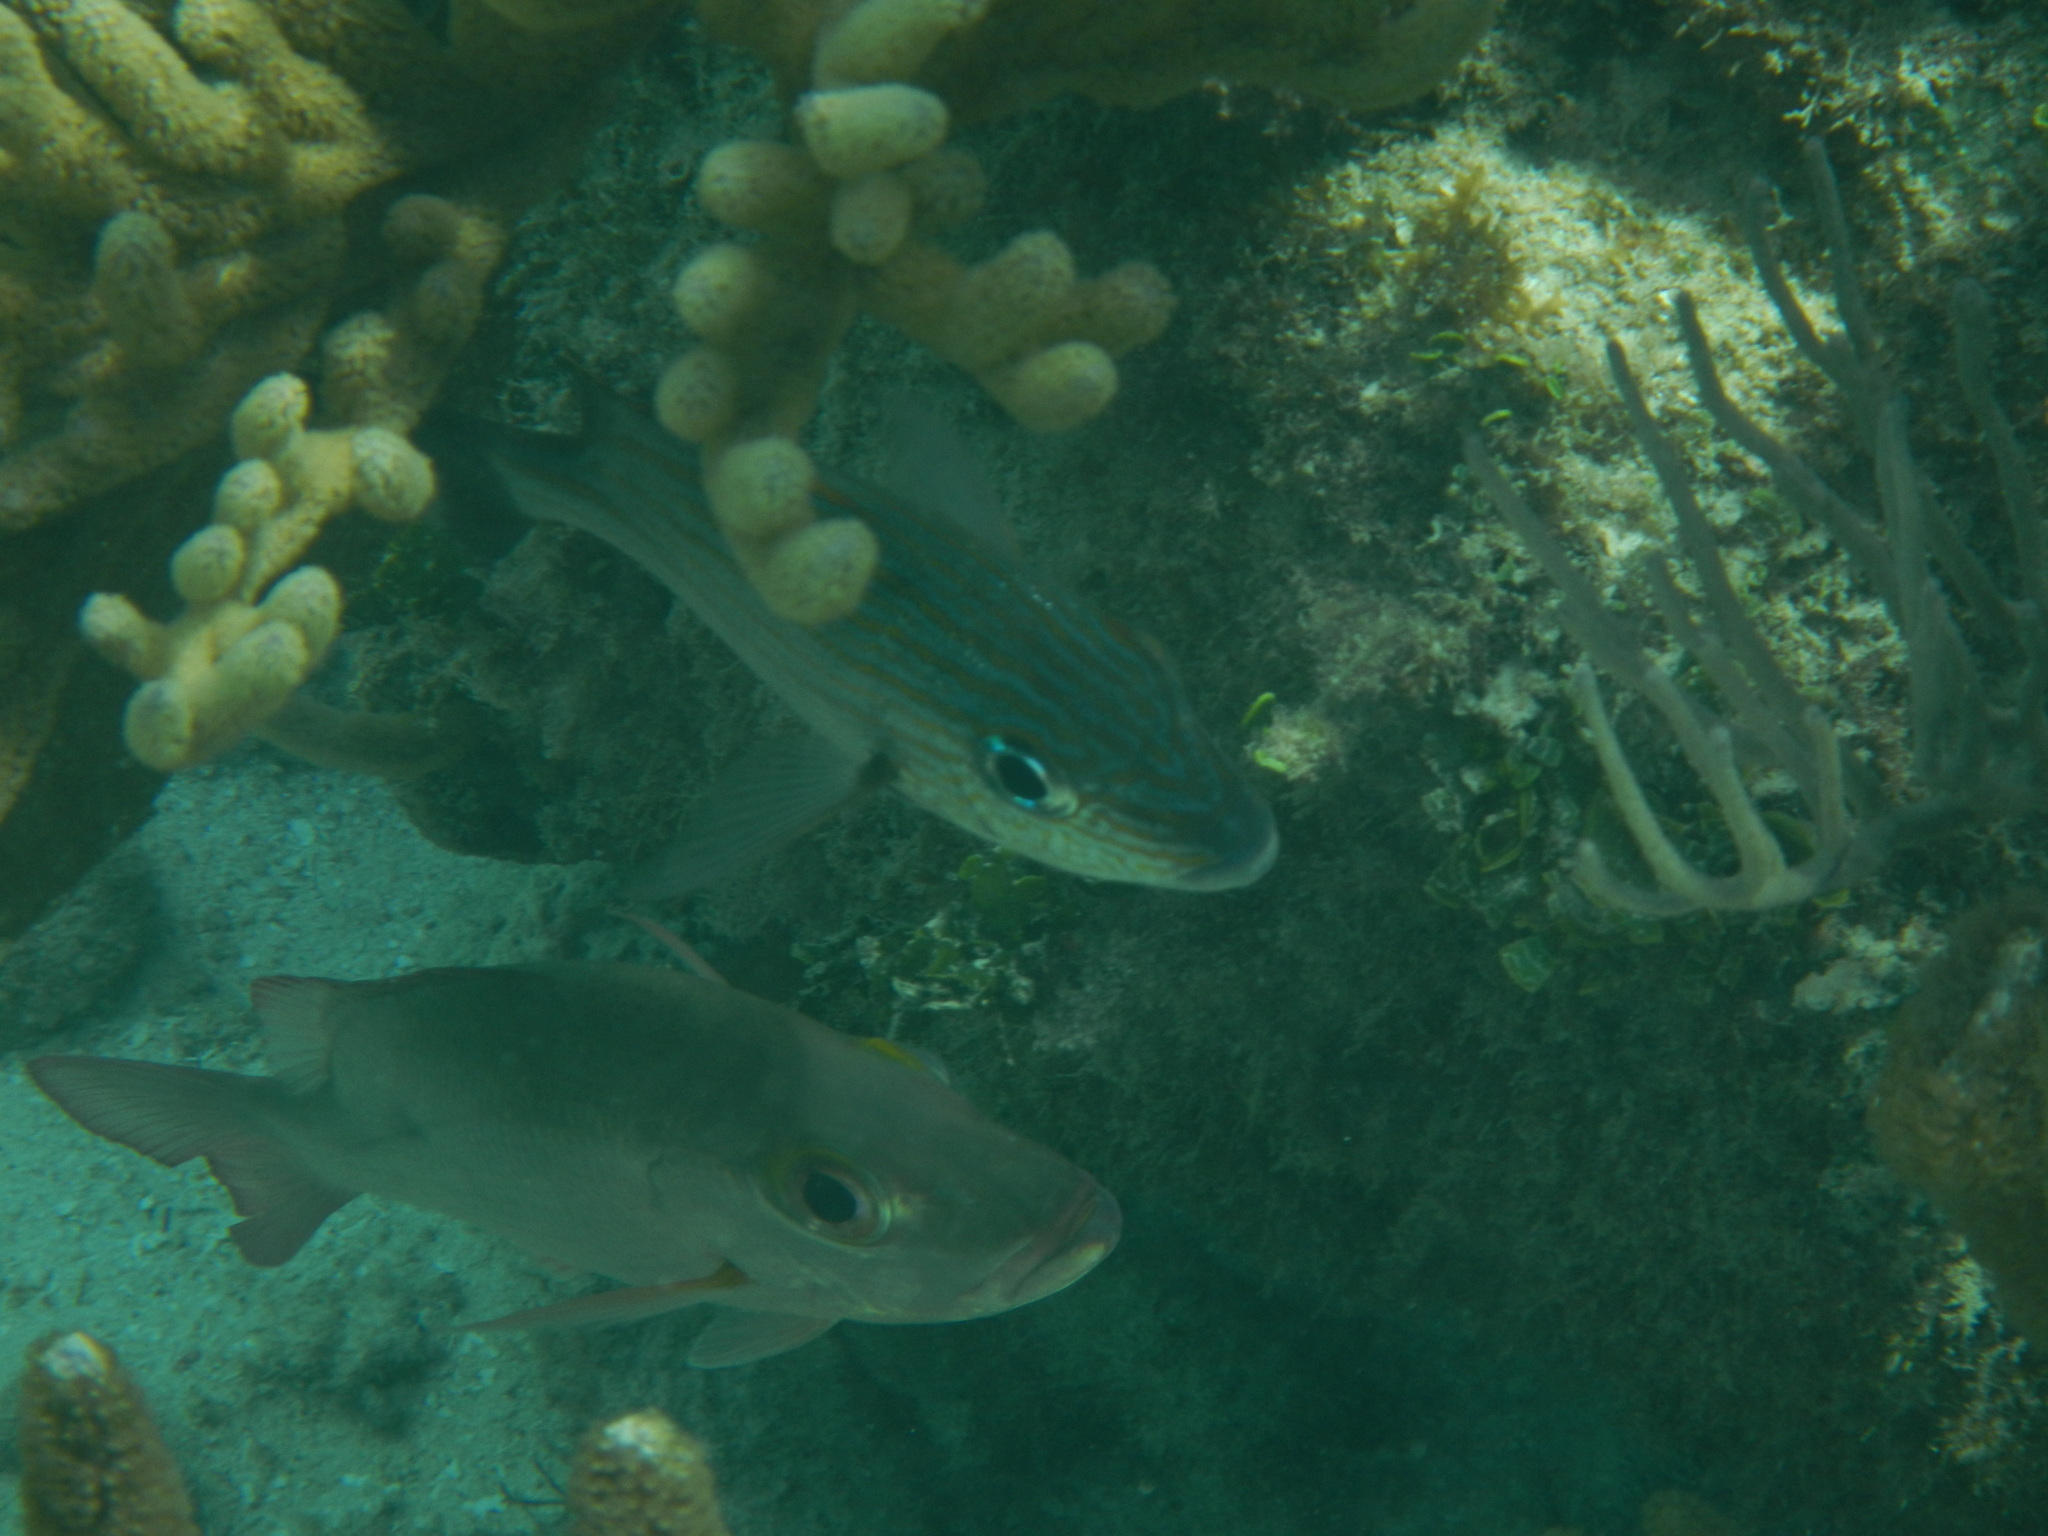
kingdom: Animalia
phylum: Chordata
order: Perciformes
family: Lutjanidae
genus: Lutjanus
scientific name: Lutjanus mahogoni
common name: Spot snapper
